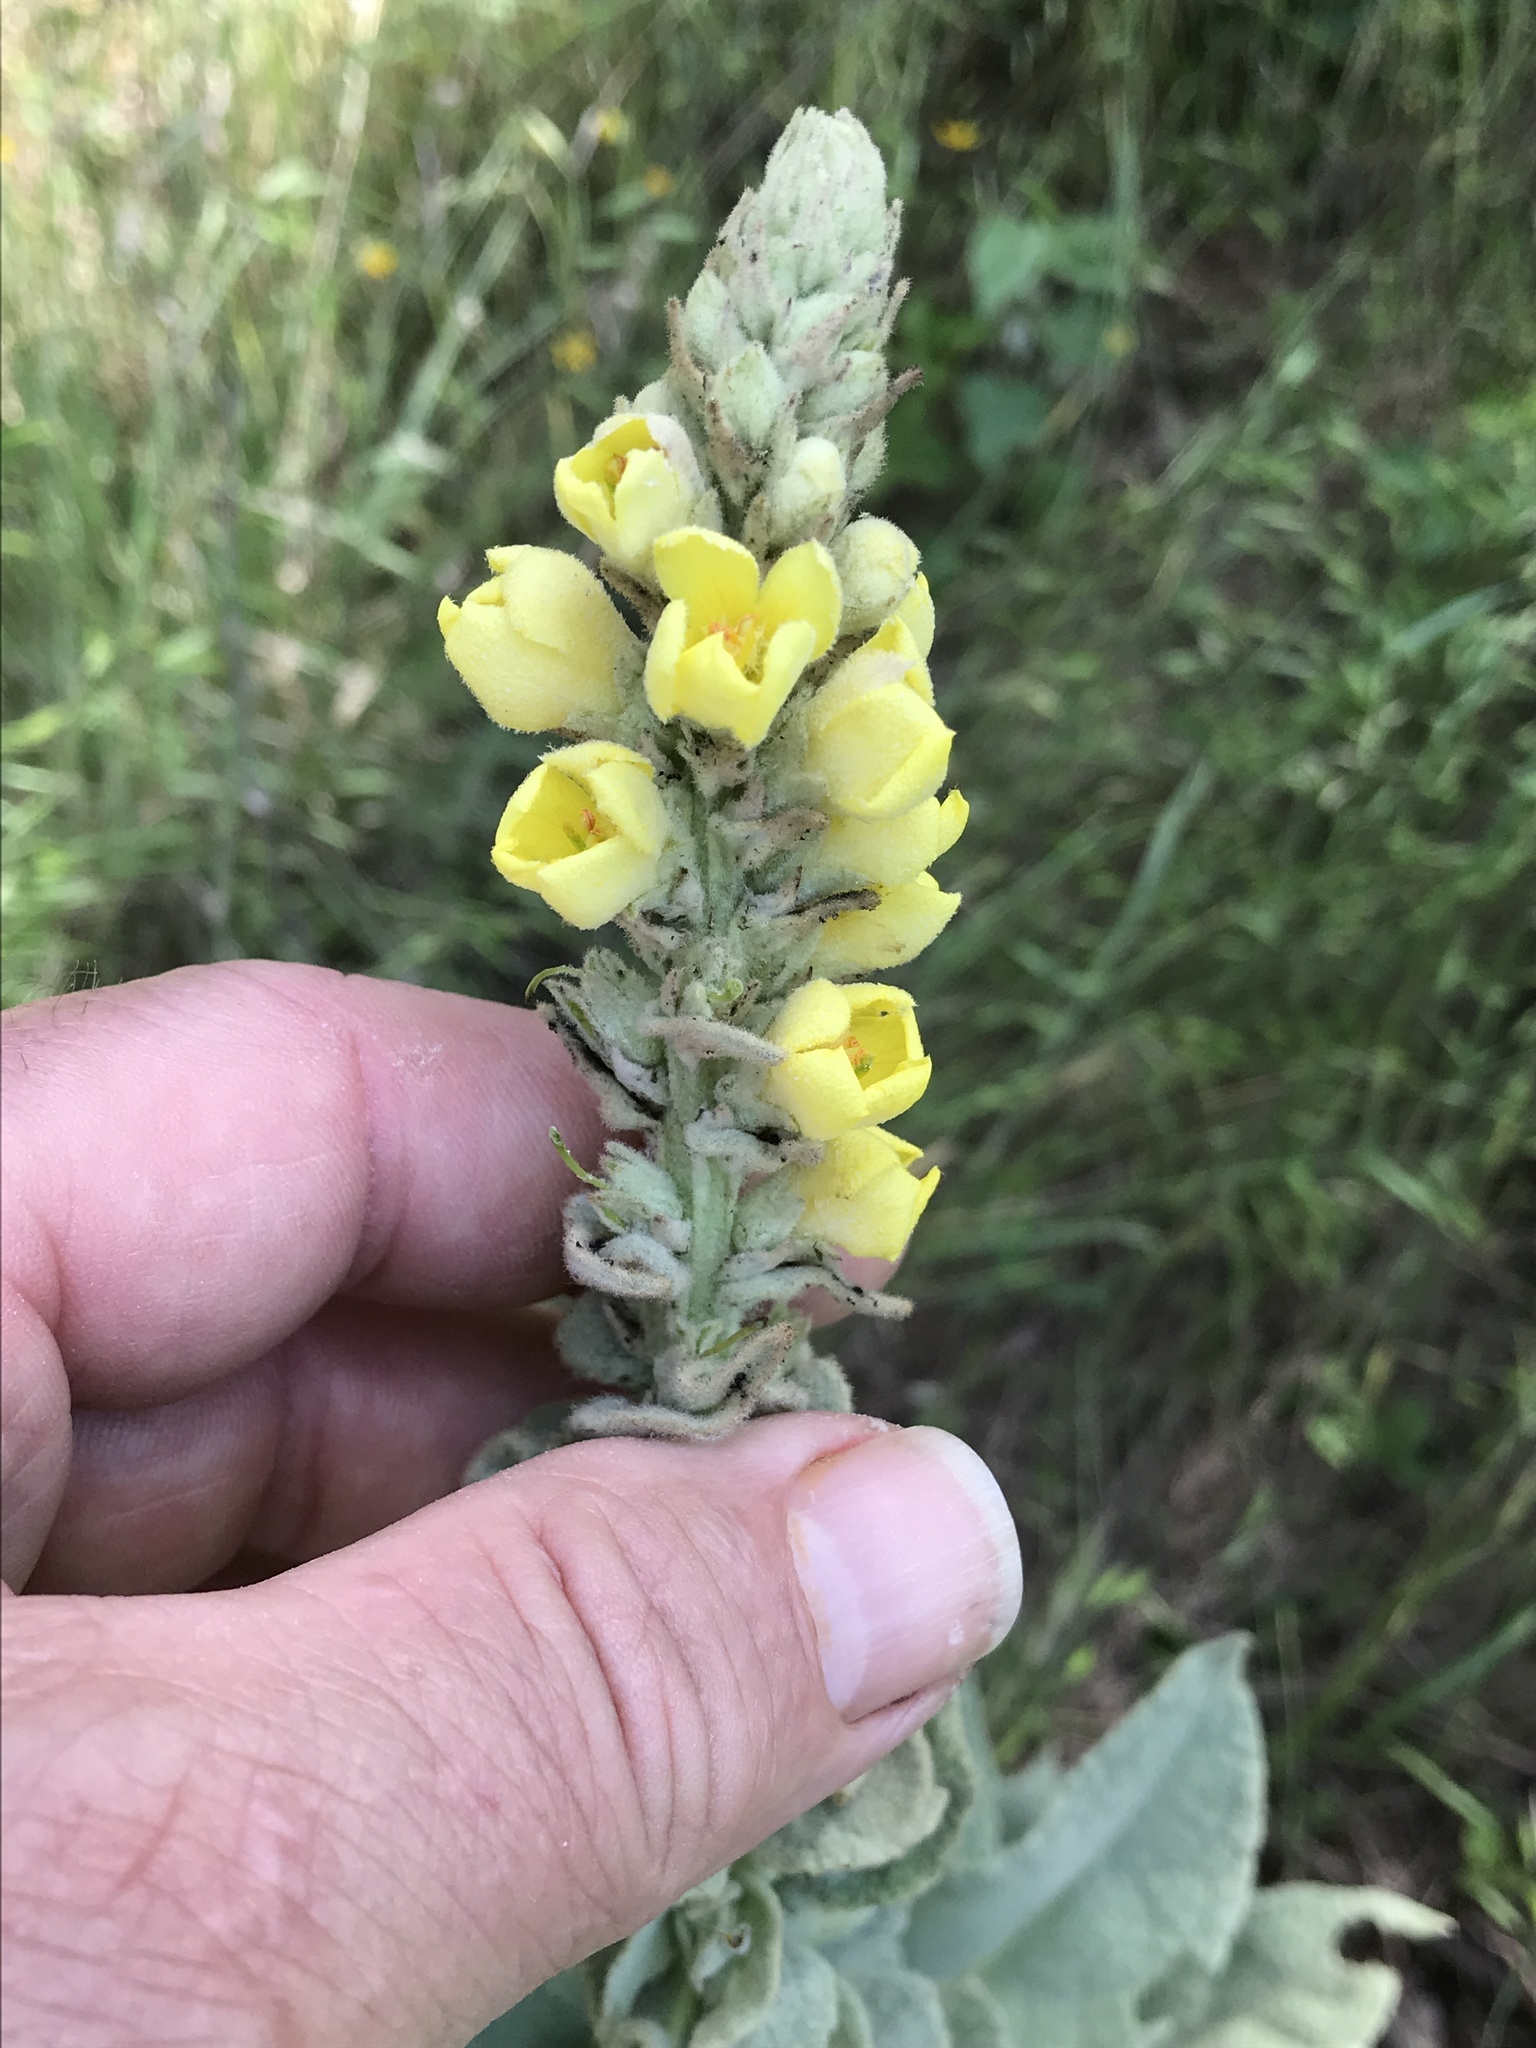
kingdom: Plantae
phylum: Tracheophyta
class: Magnoliopsida
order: Lamiales
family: Scrophulariaceae
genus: Verbascum
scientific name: Verbascum thapsus
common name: Common mullein
